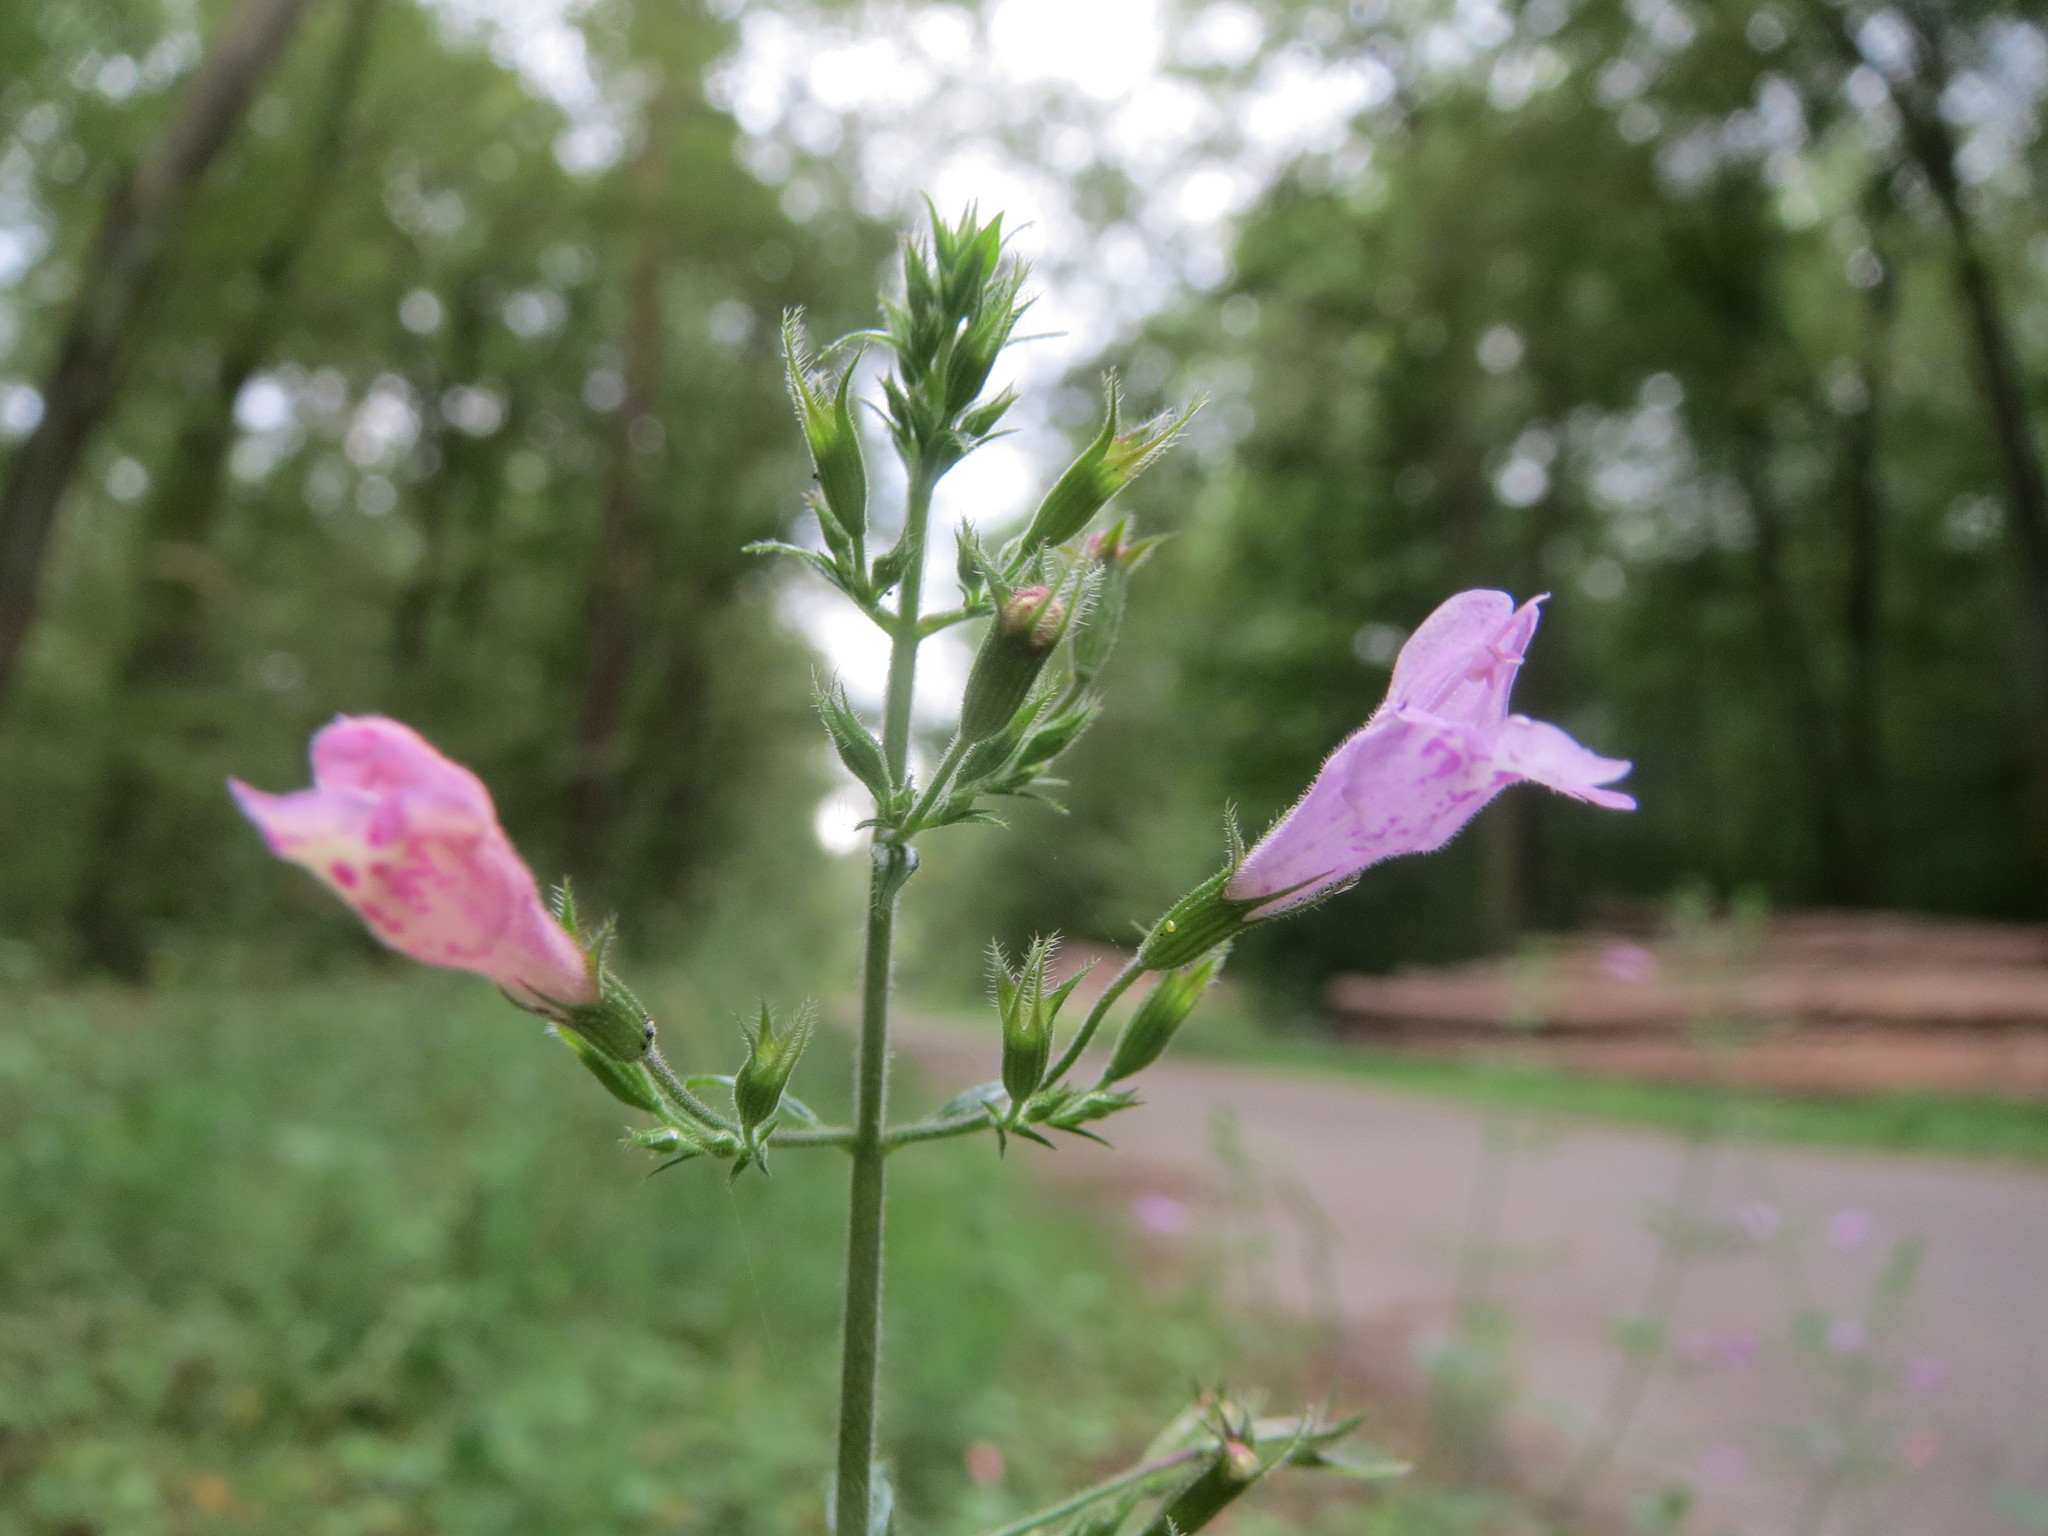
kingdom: Plantae
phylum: Tracheophyta
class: Magnoliopsida
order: Lamiales
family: Lamiaceae
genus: Clinopodium
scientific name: Clinopodium menthifolium
